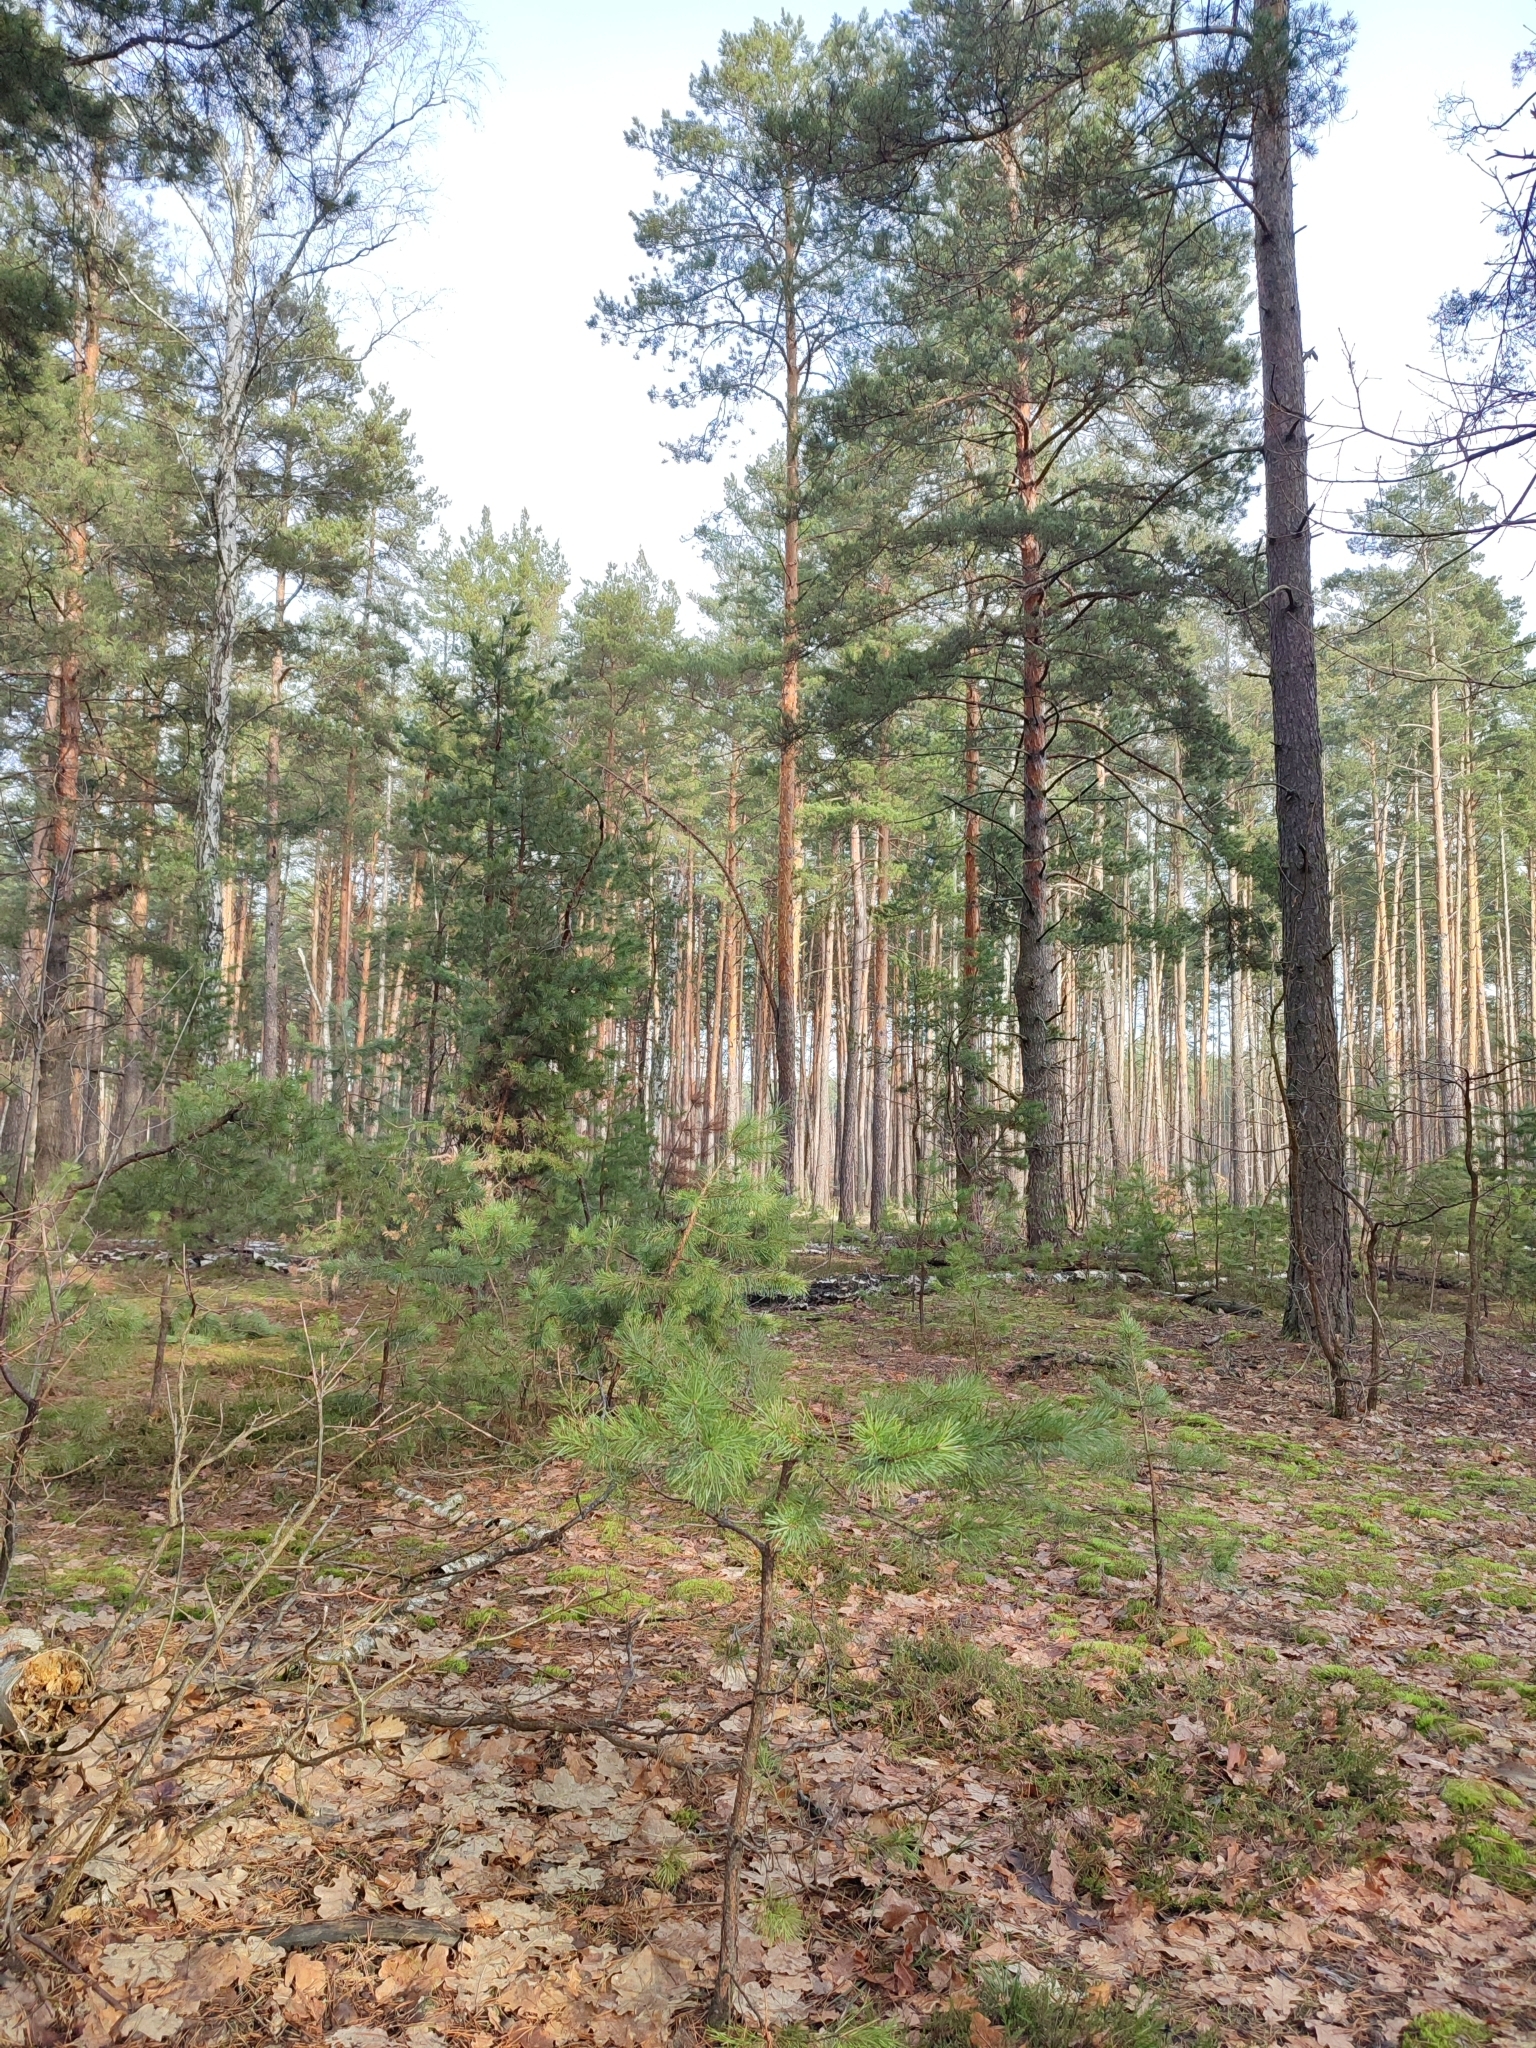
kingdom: Plantae
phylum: Tracheophyta
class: Pinopsida
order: Pinales
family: Pinaceae
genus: Pinus
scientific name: Pinus sylvestris
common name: Scots pine
